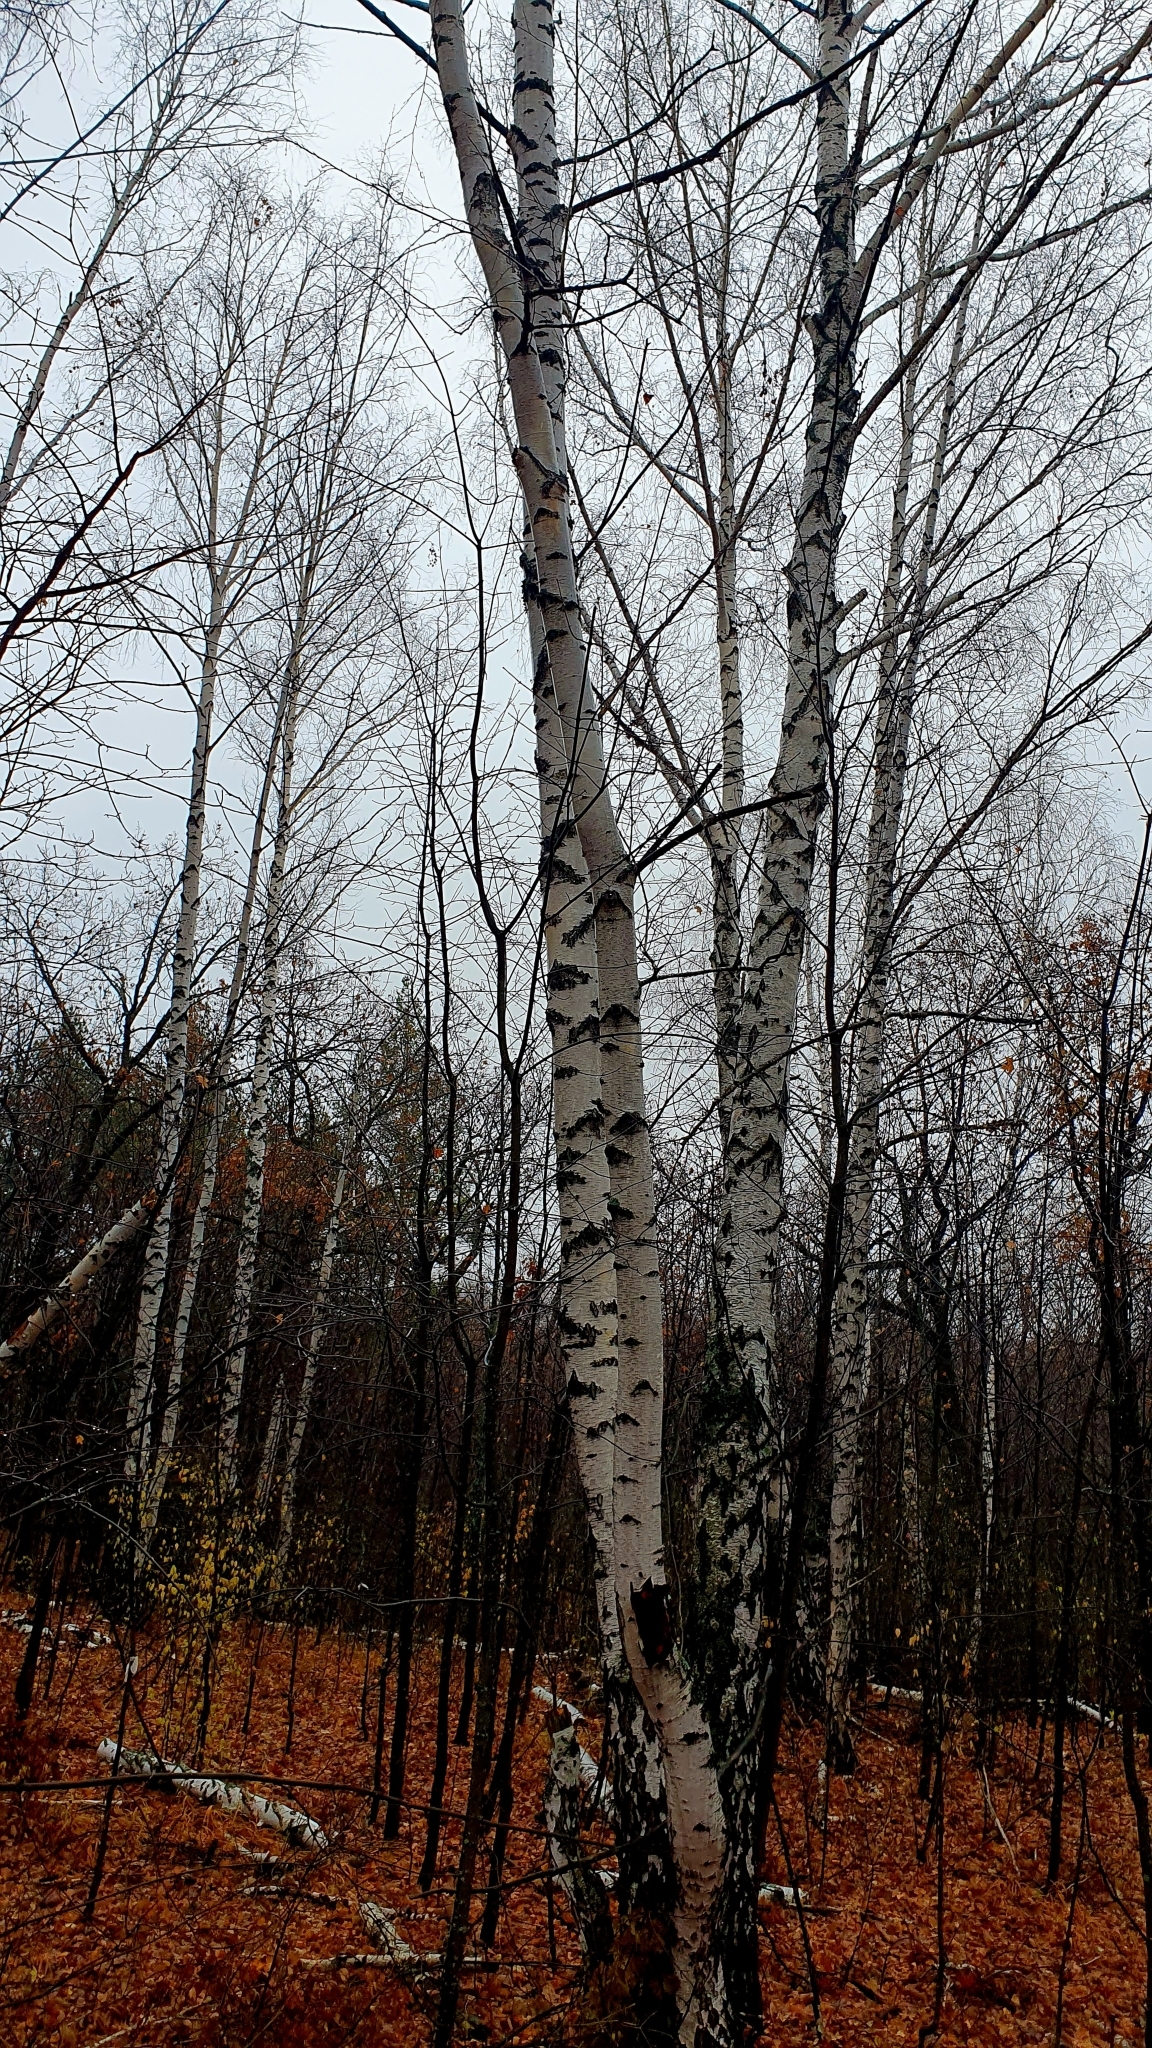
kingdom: Plantae
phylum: Tracheophyta
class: Magnoliopsida
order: Fagales
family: Betulaceae
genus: Betula
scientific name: Betula pendula
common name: Silver birch
